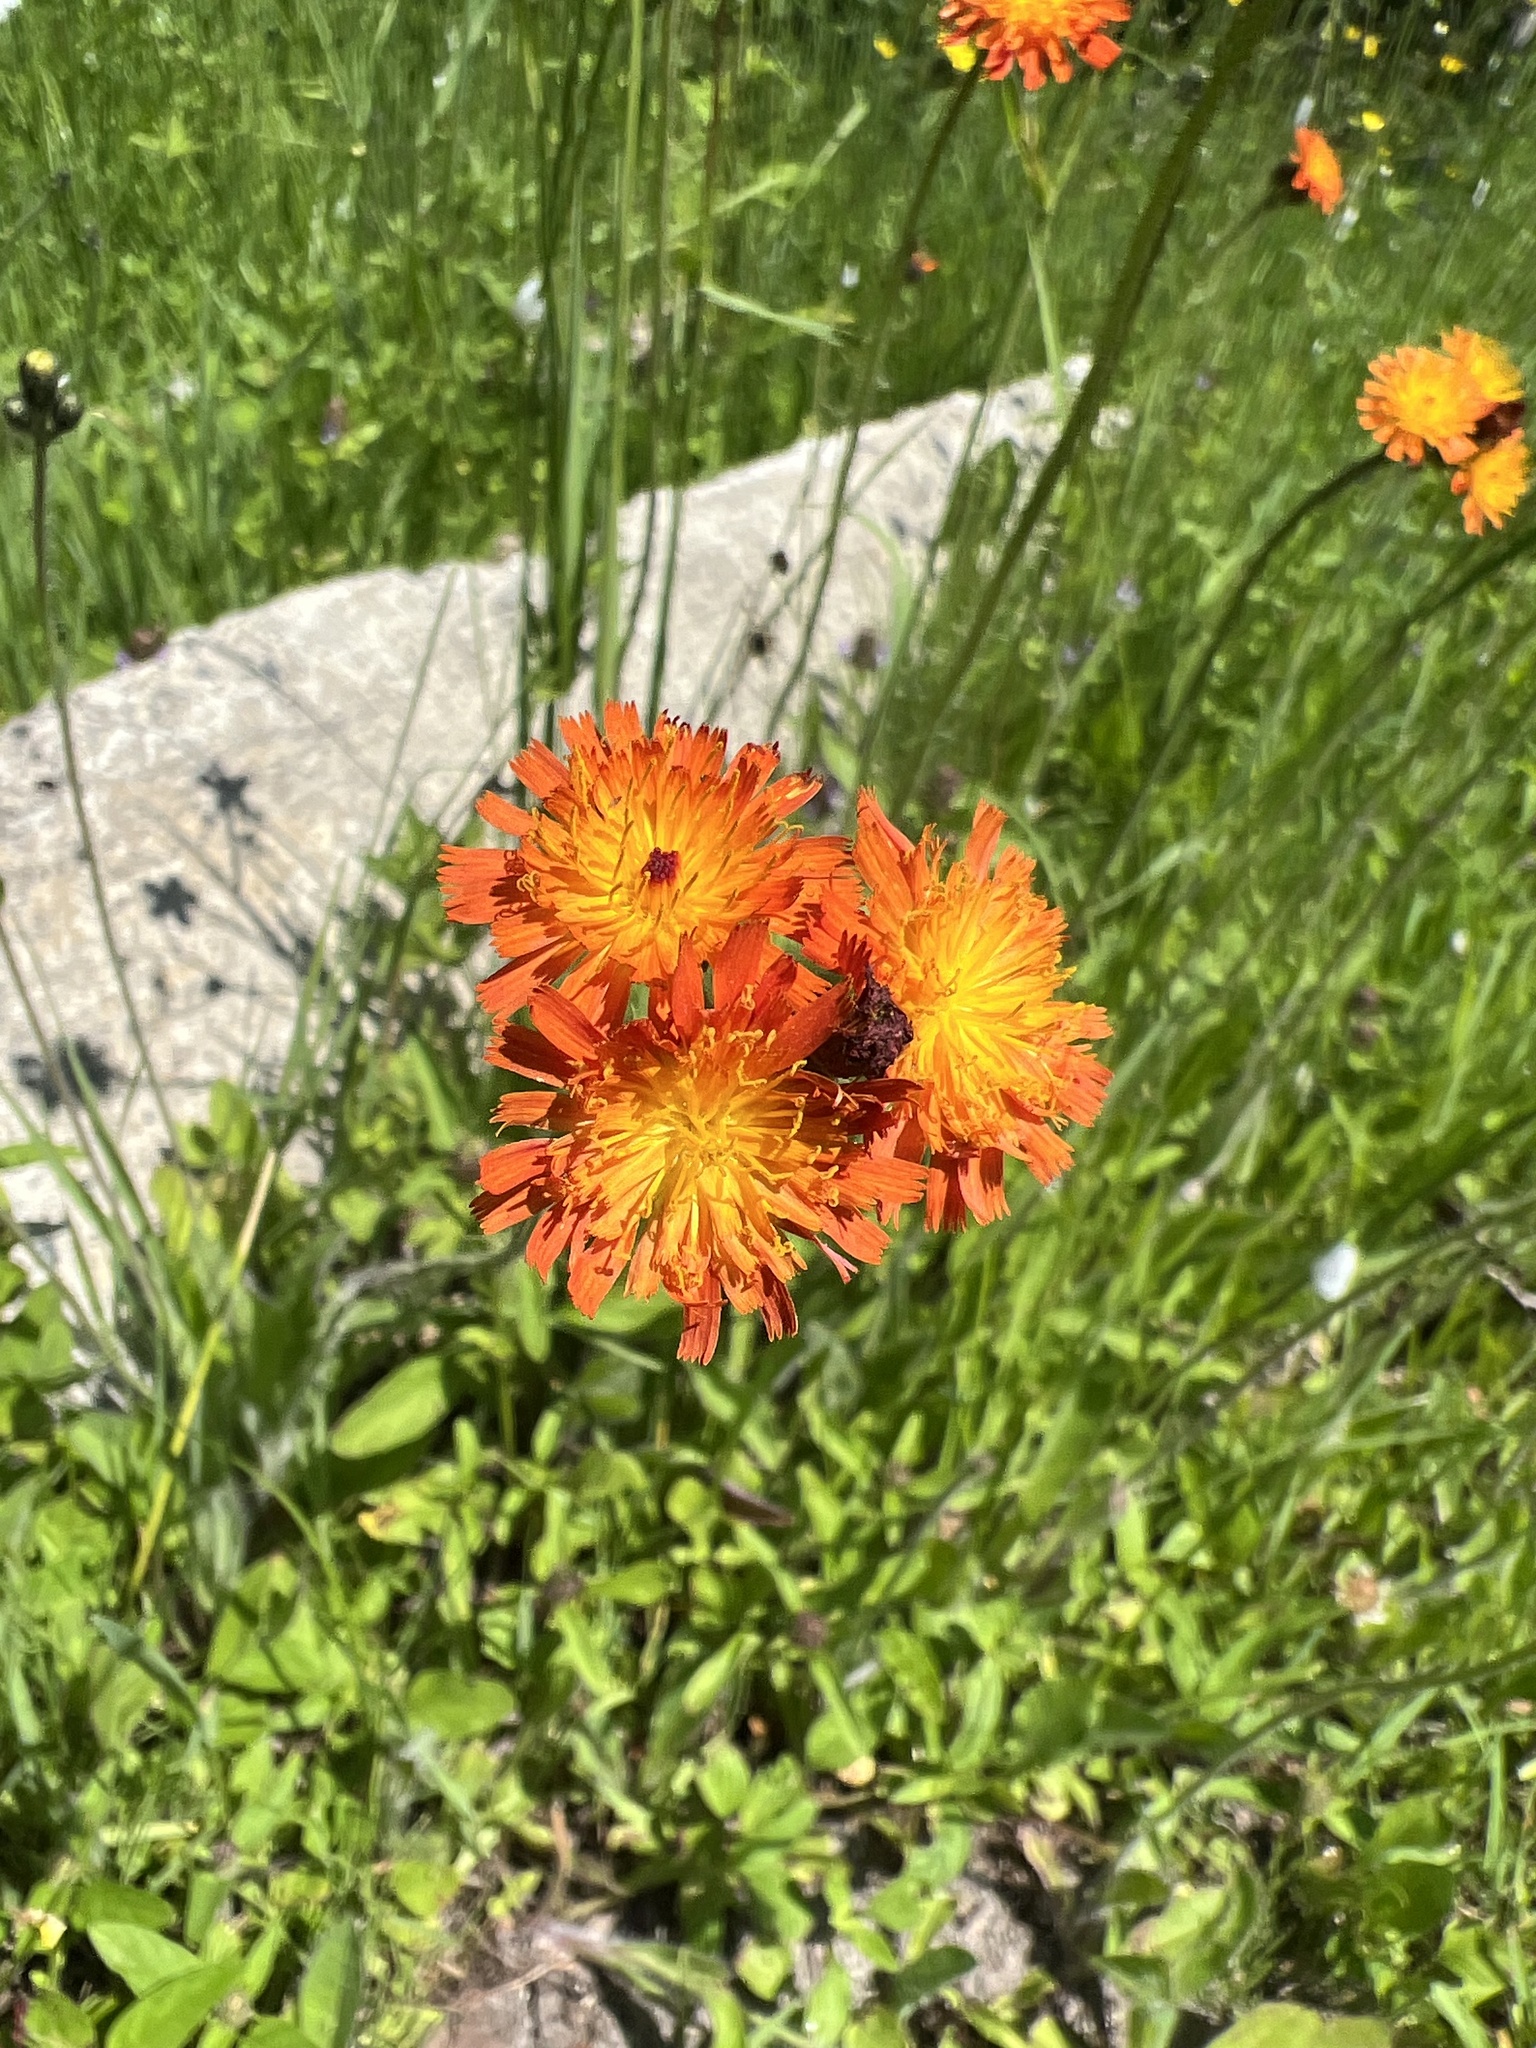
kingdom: Plantae
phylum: Tracheophyta
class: Magnoliopsida
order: Asterales
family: Asteraceae
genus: Pilosella
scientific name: Pilosella aurantiaca
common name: Fox-and-cubs
